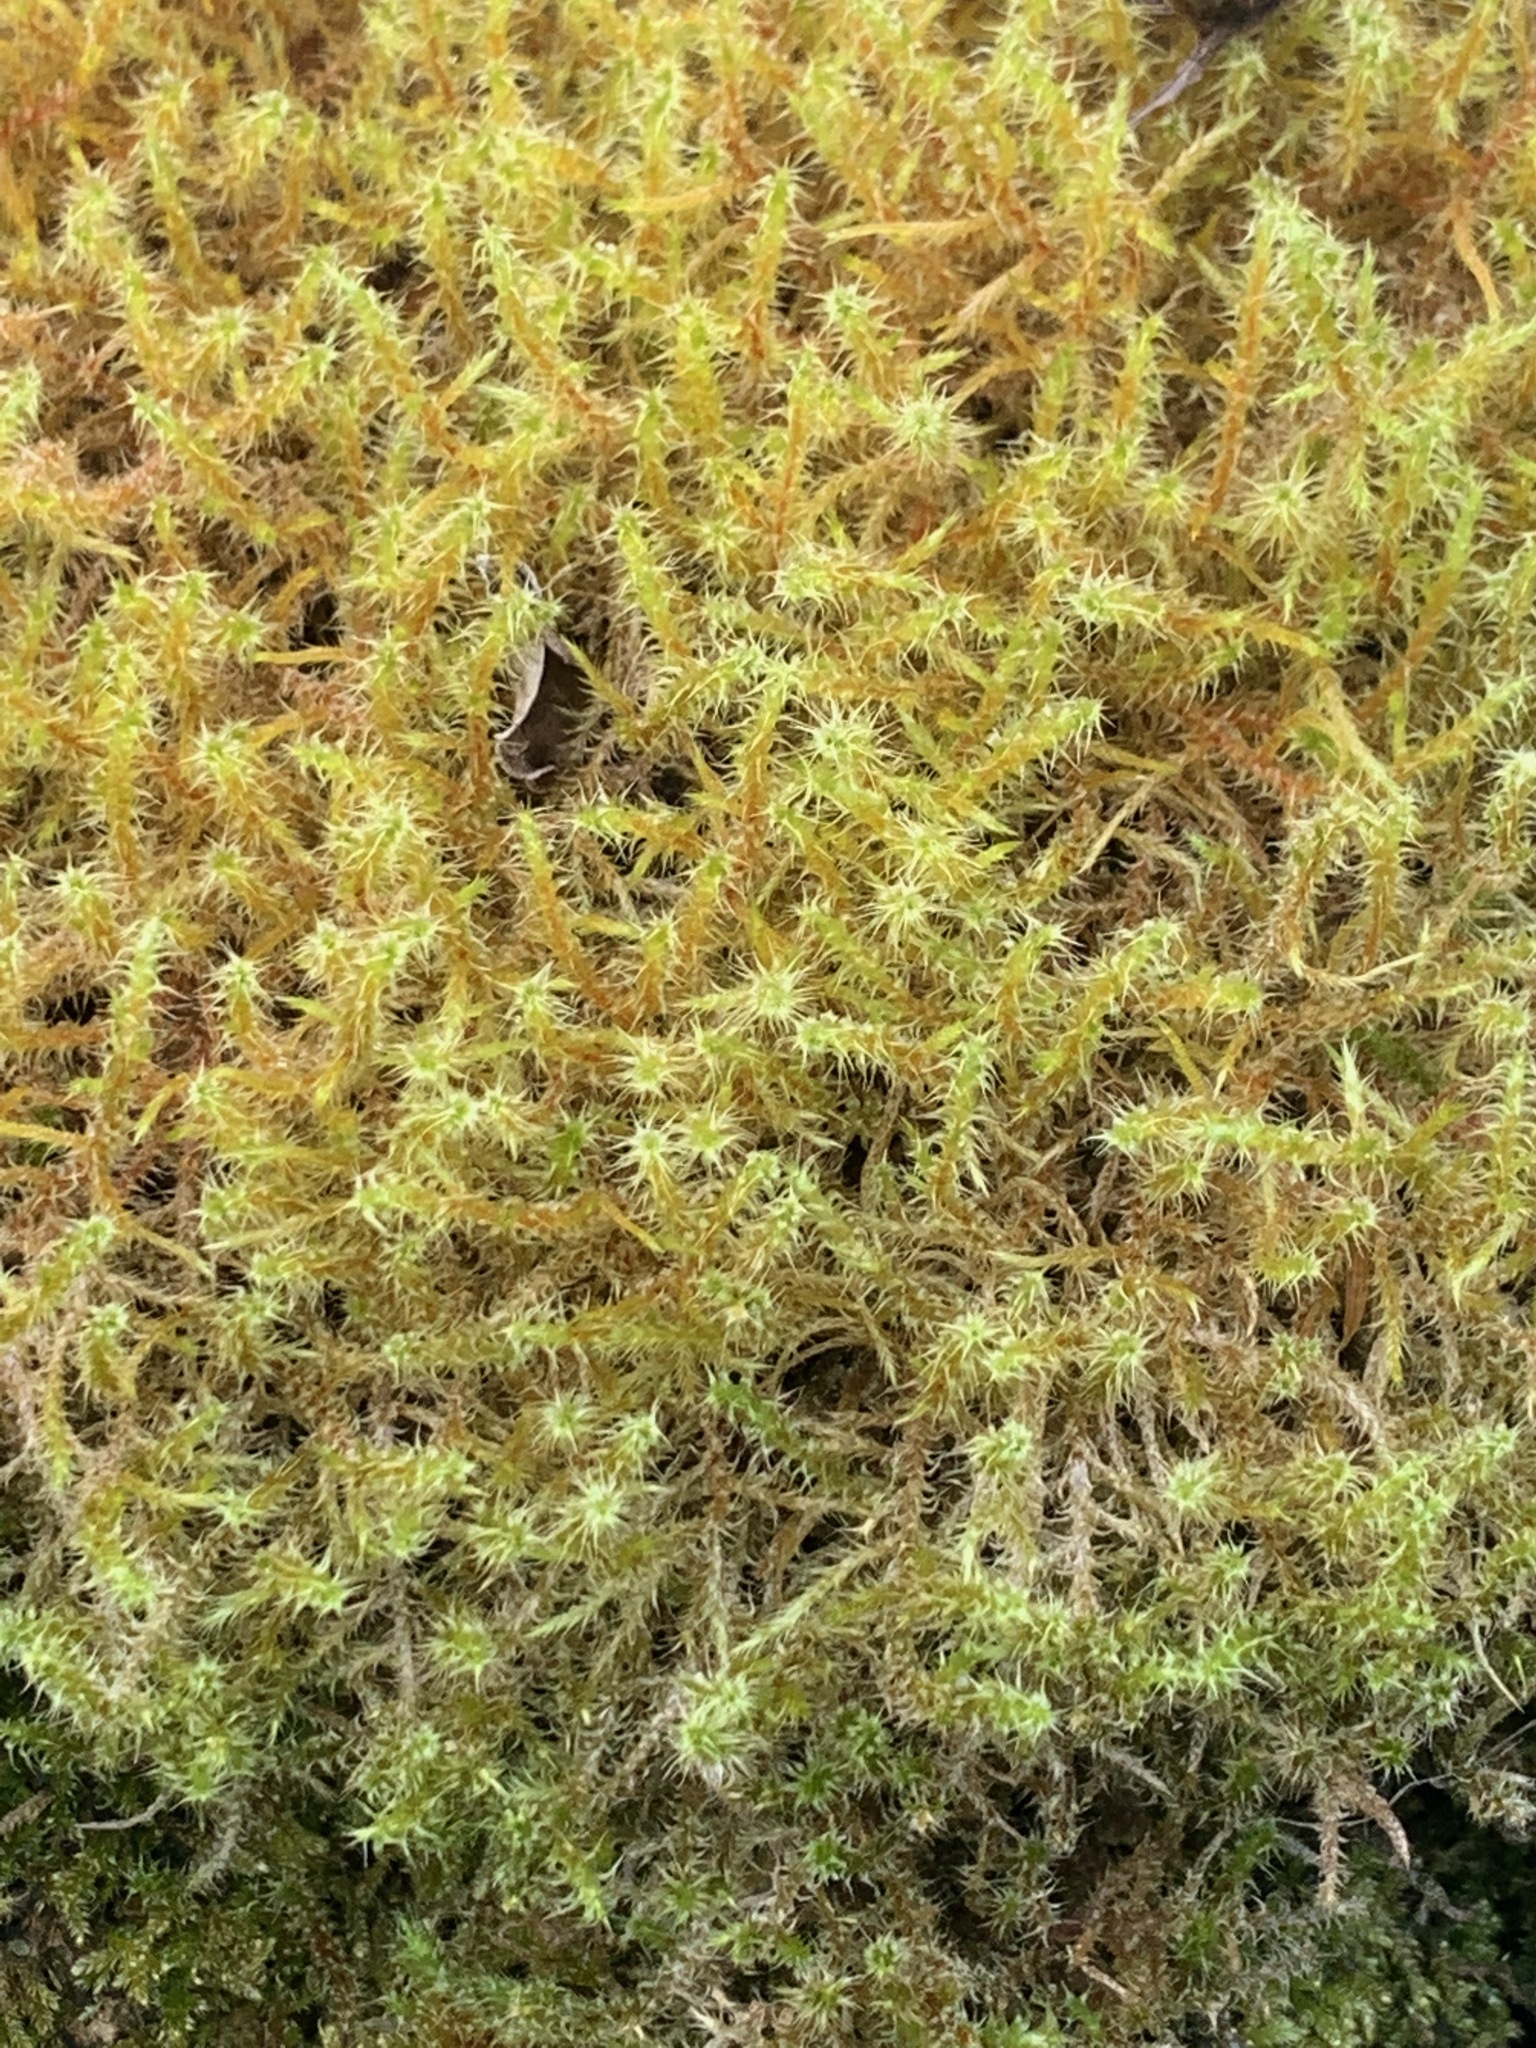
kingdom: Plantae
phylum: Bryophyta
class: Bryopsida
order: Hypnales
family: Hylocomiaceae
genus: Rhytidiadelphus
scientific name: Rhytidiadelphus squarrosus
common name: Springy turf-moss
